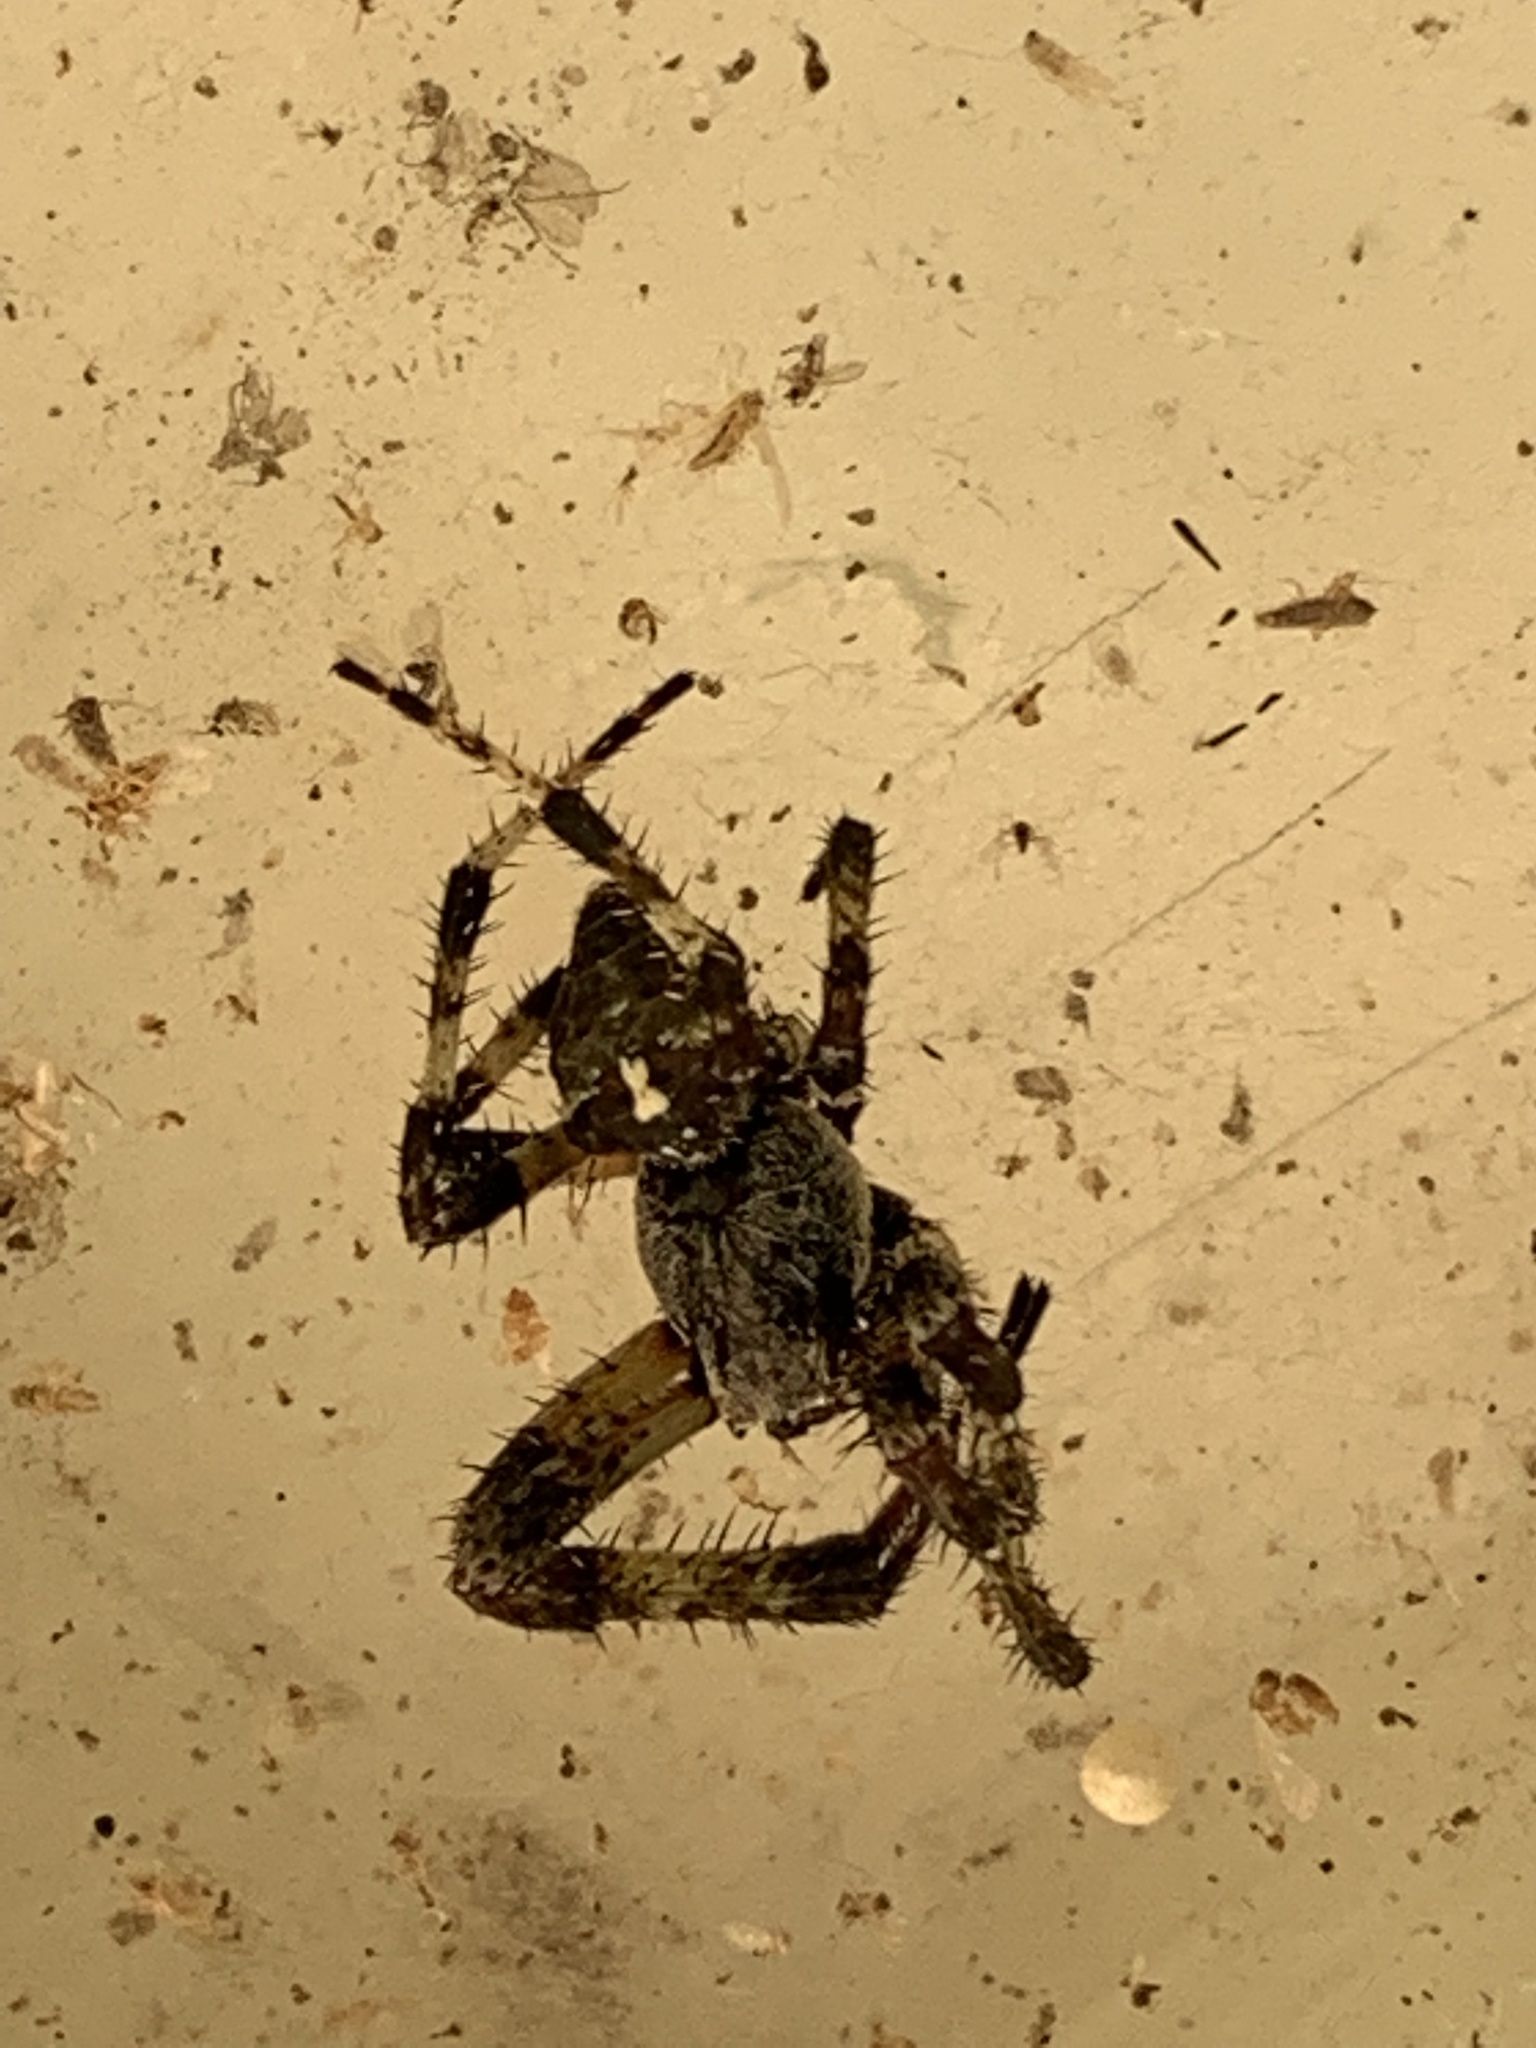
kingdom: Animalia
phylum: Arthropoda
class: Arachnida
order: Araneae
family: Araneidae
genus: Araneus
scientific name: Araneus bicentenarius
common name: Giant lichen orbweaver
